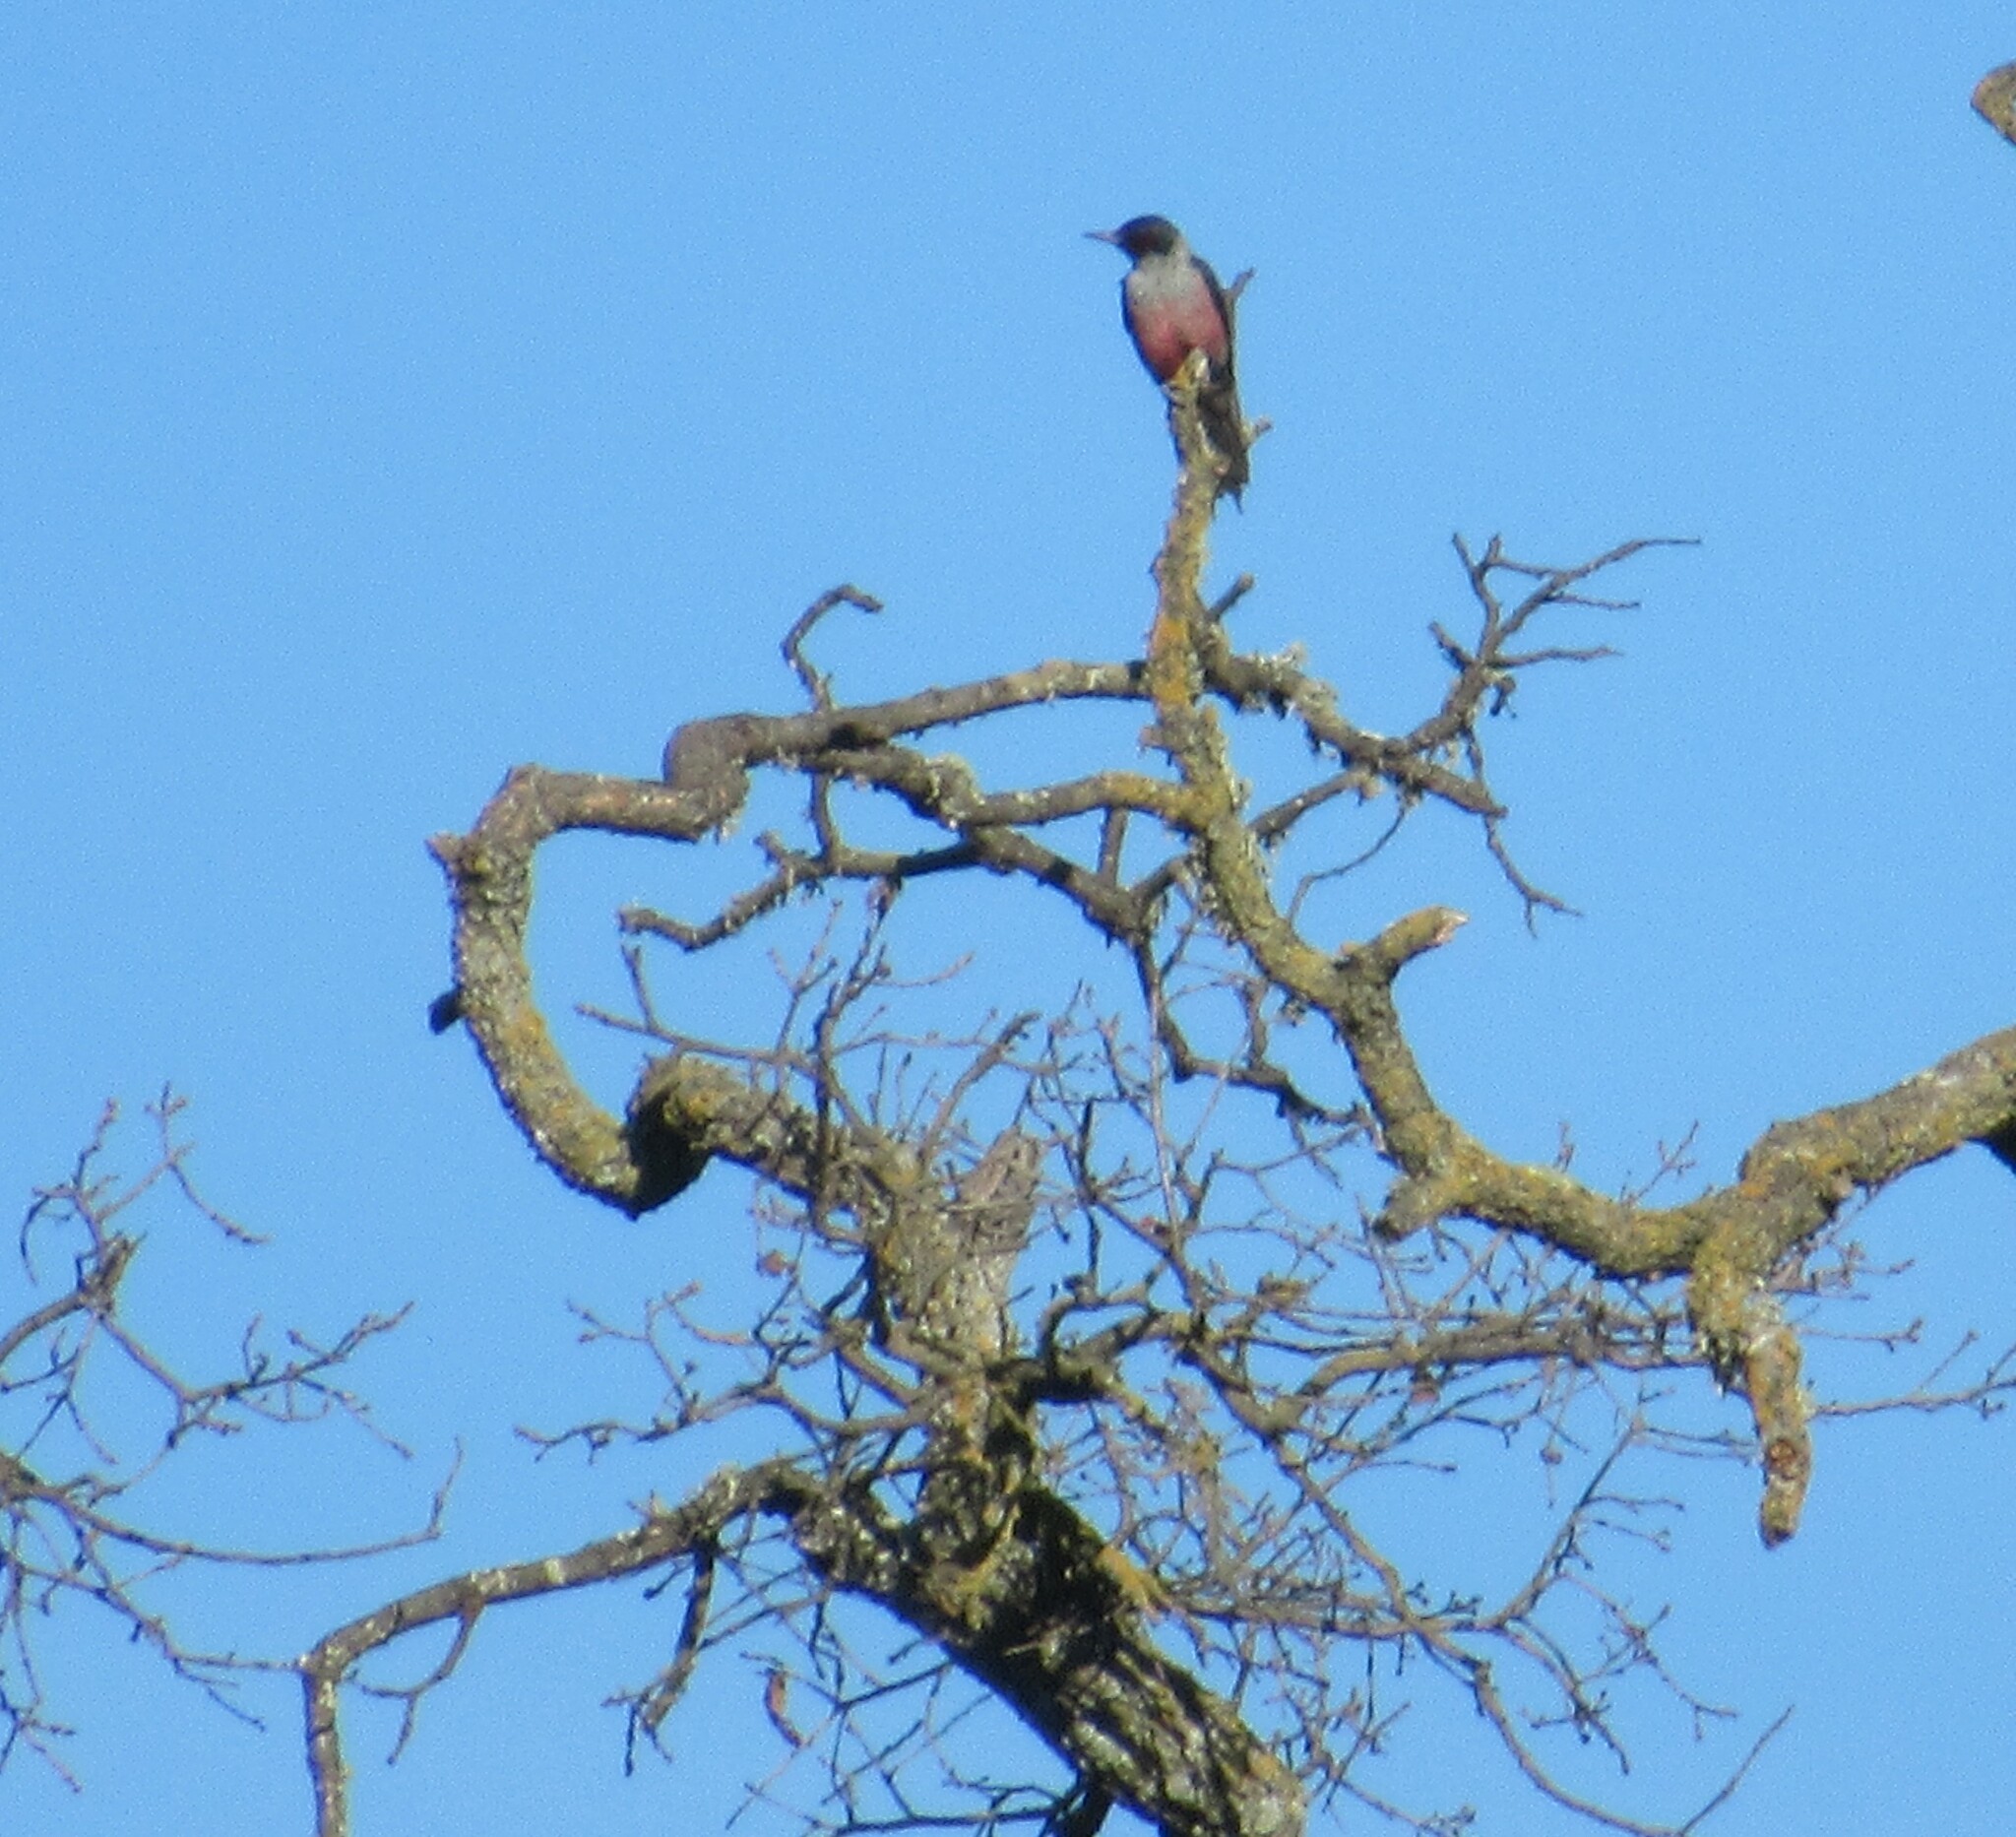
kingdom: Animalia
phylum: Chordata
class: Aves
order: Piciformes
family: Picidae
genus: Melanerpes
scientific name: Melanerpes lewis
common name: Lewis's woodpecker
